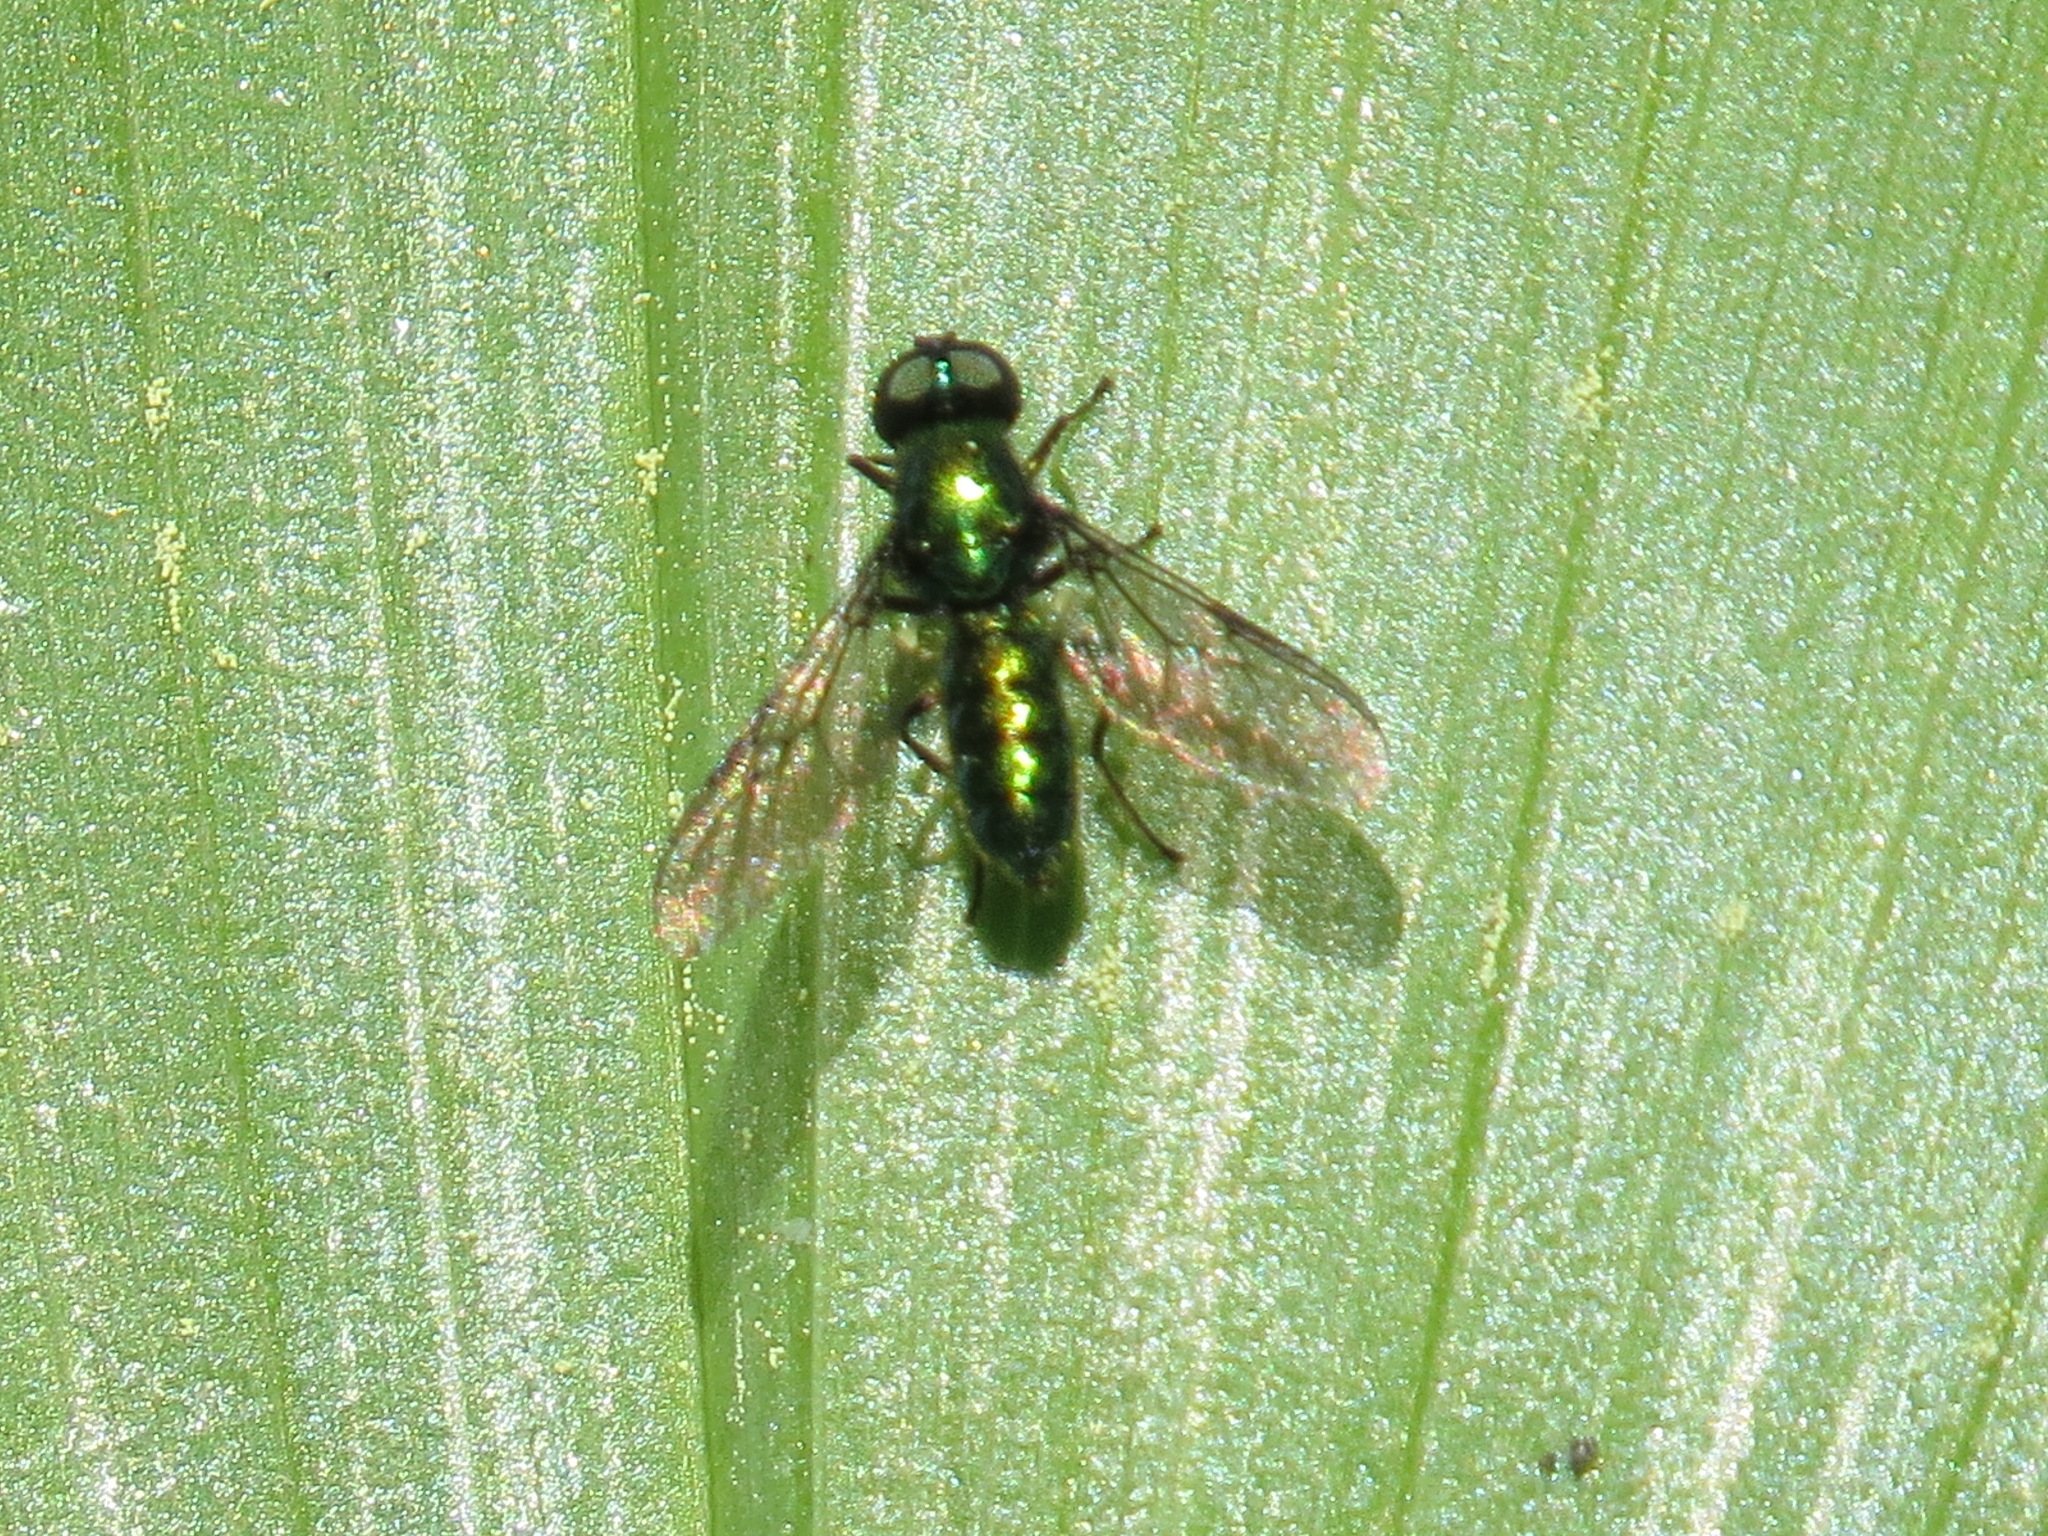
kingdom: Animalia
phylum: Arthropoda
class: Insecta
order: Diptera
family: Stratiomyidae
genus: Sargus
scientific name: Sargus viridis
